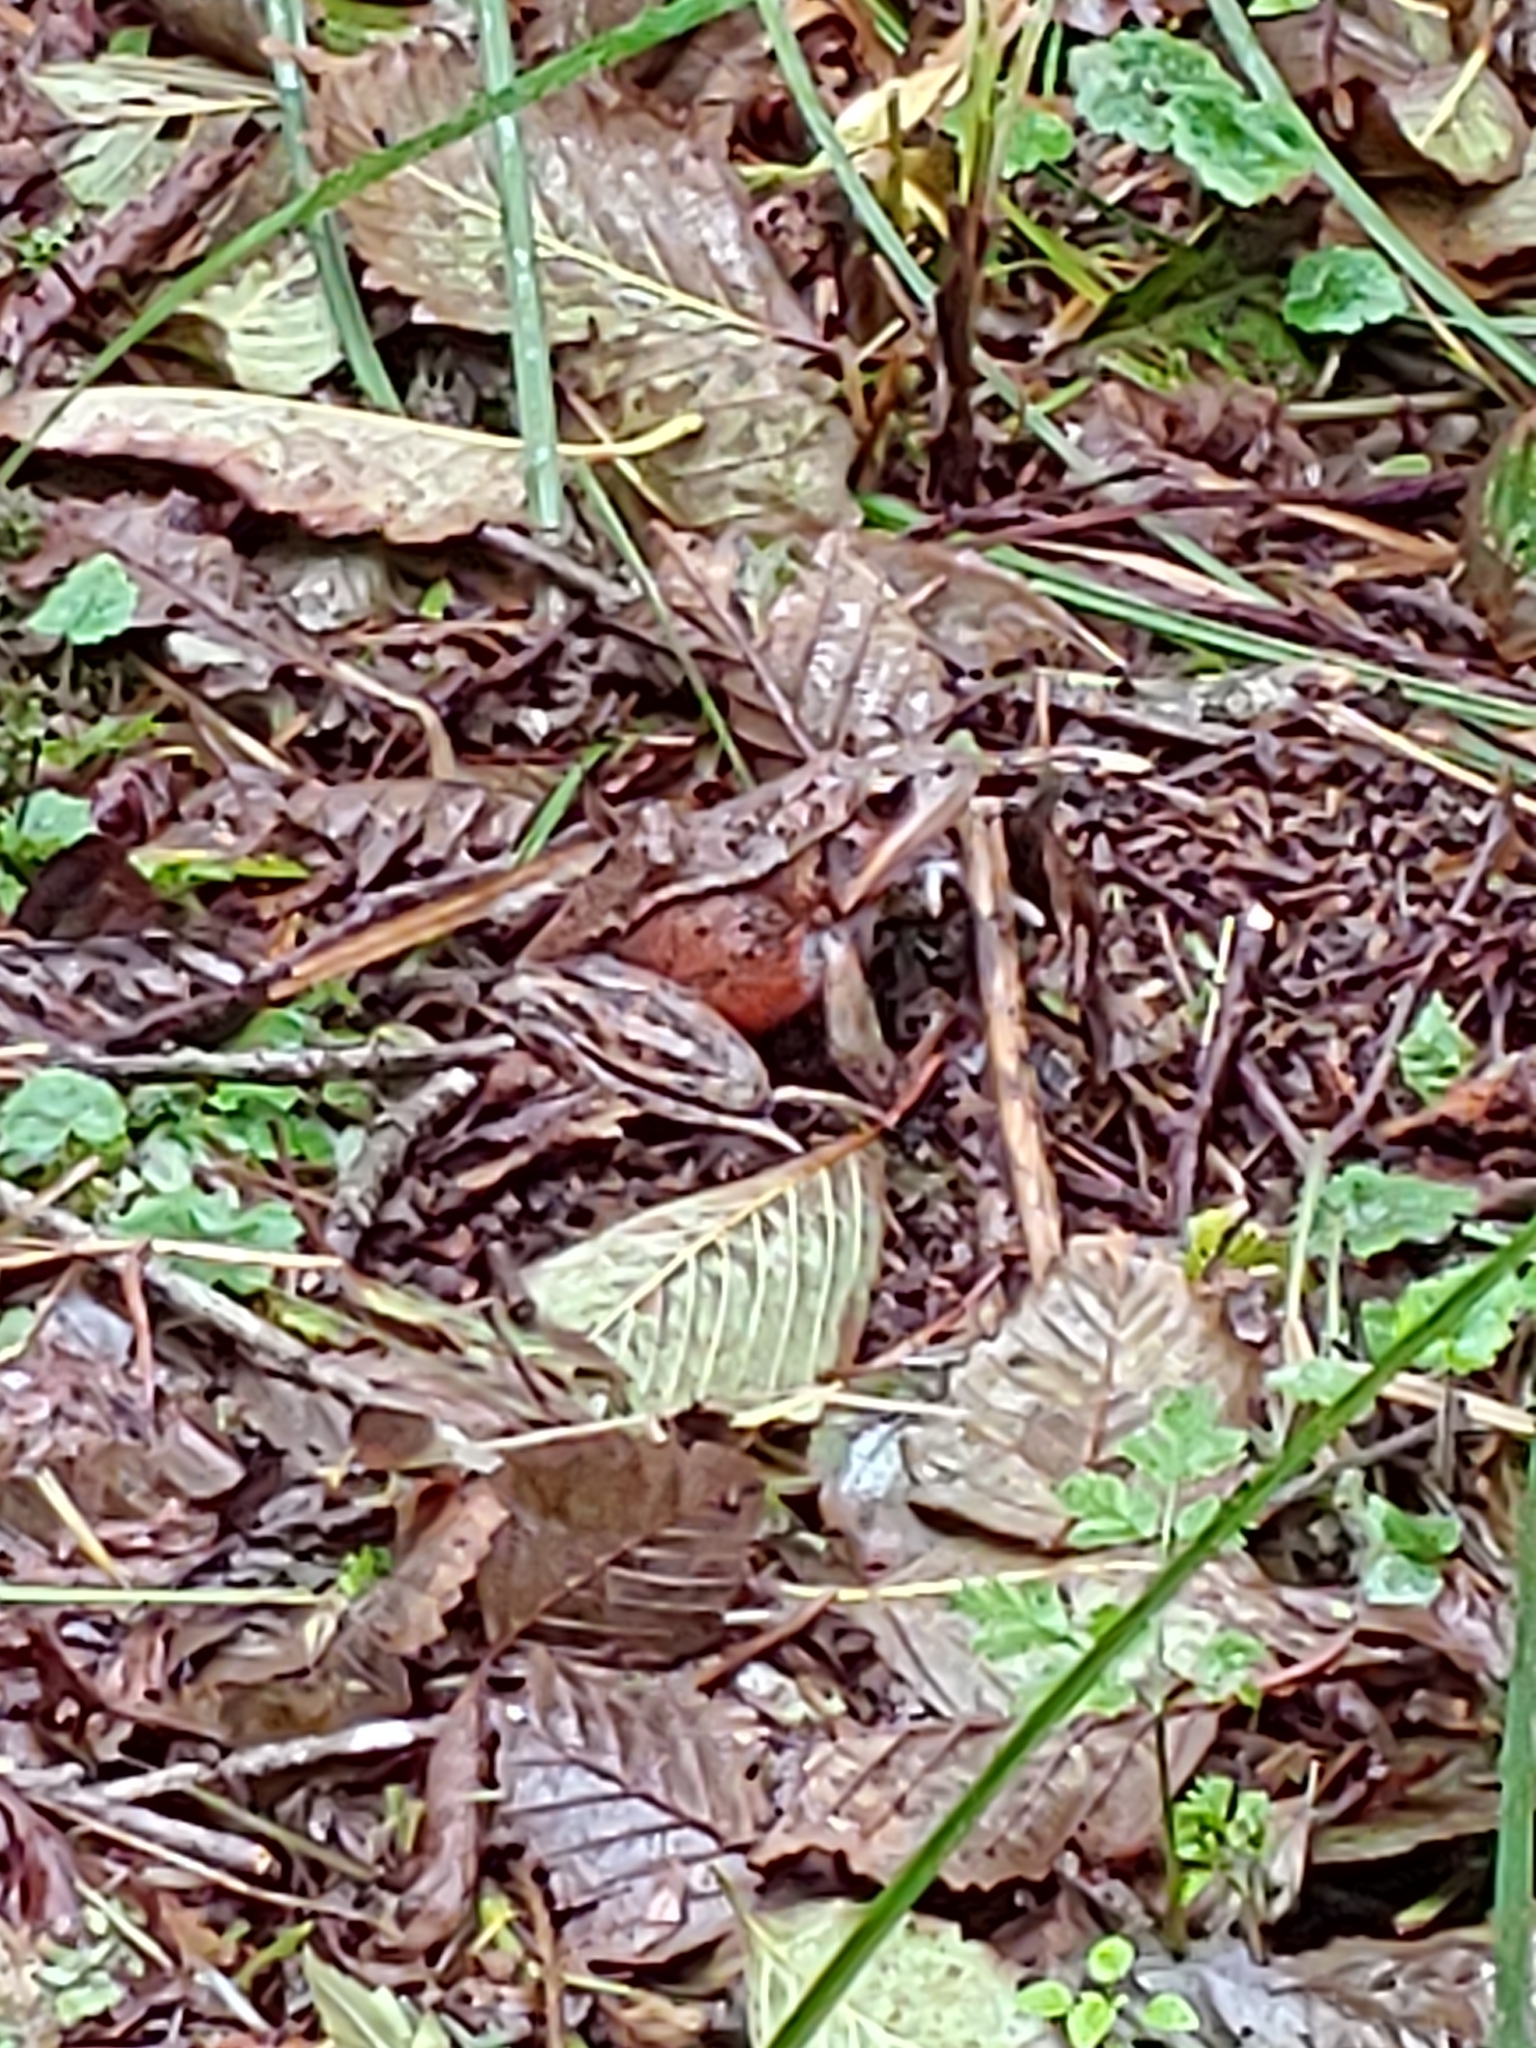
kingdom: Animalia
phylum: Chordata
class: Amphibia
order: Anura
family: Ranidae
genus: Rana
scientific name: Rana aurora
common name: Red-legged frog
